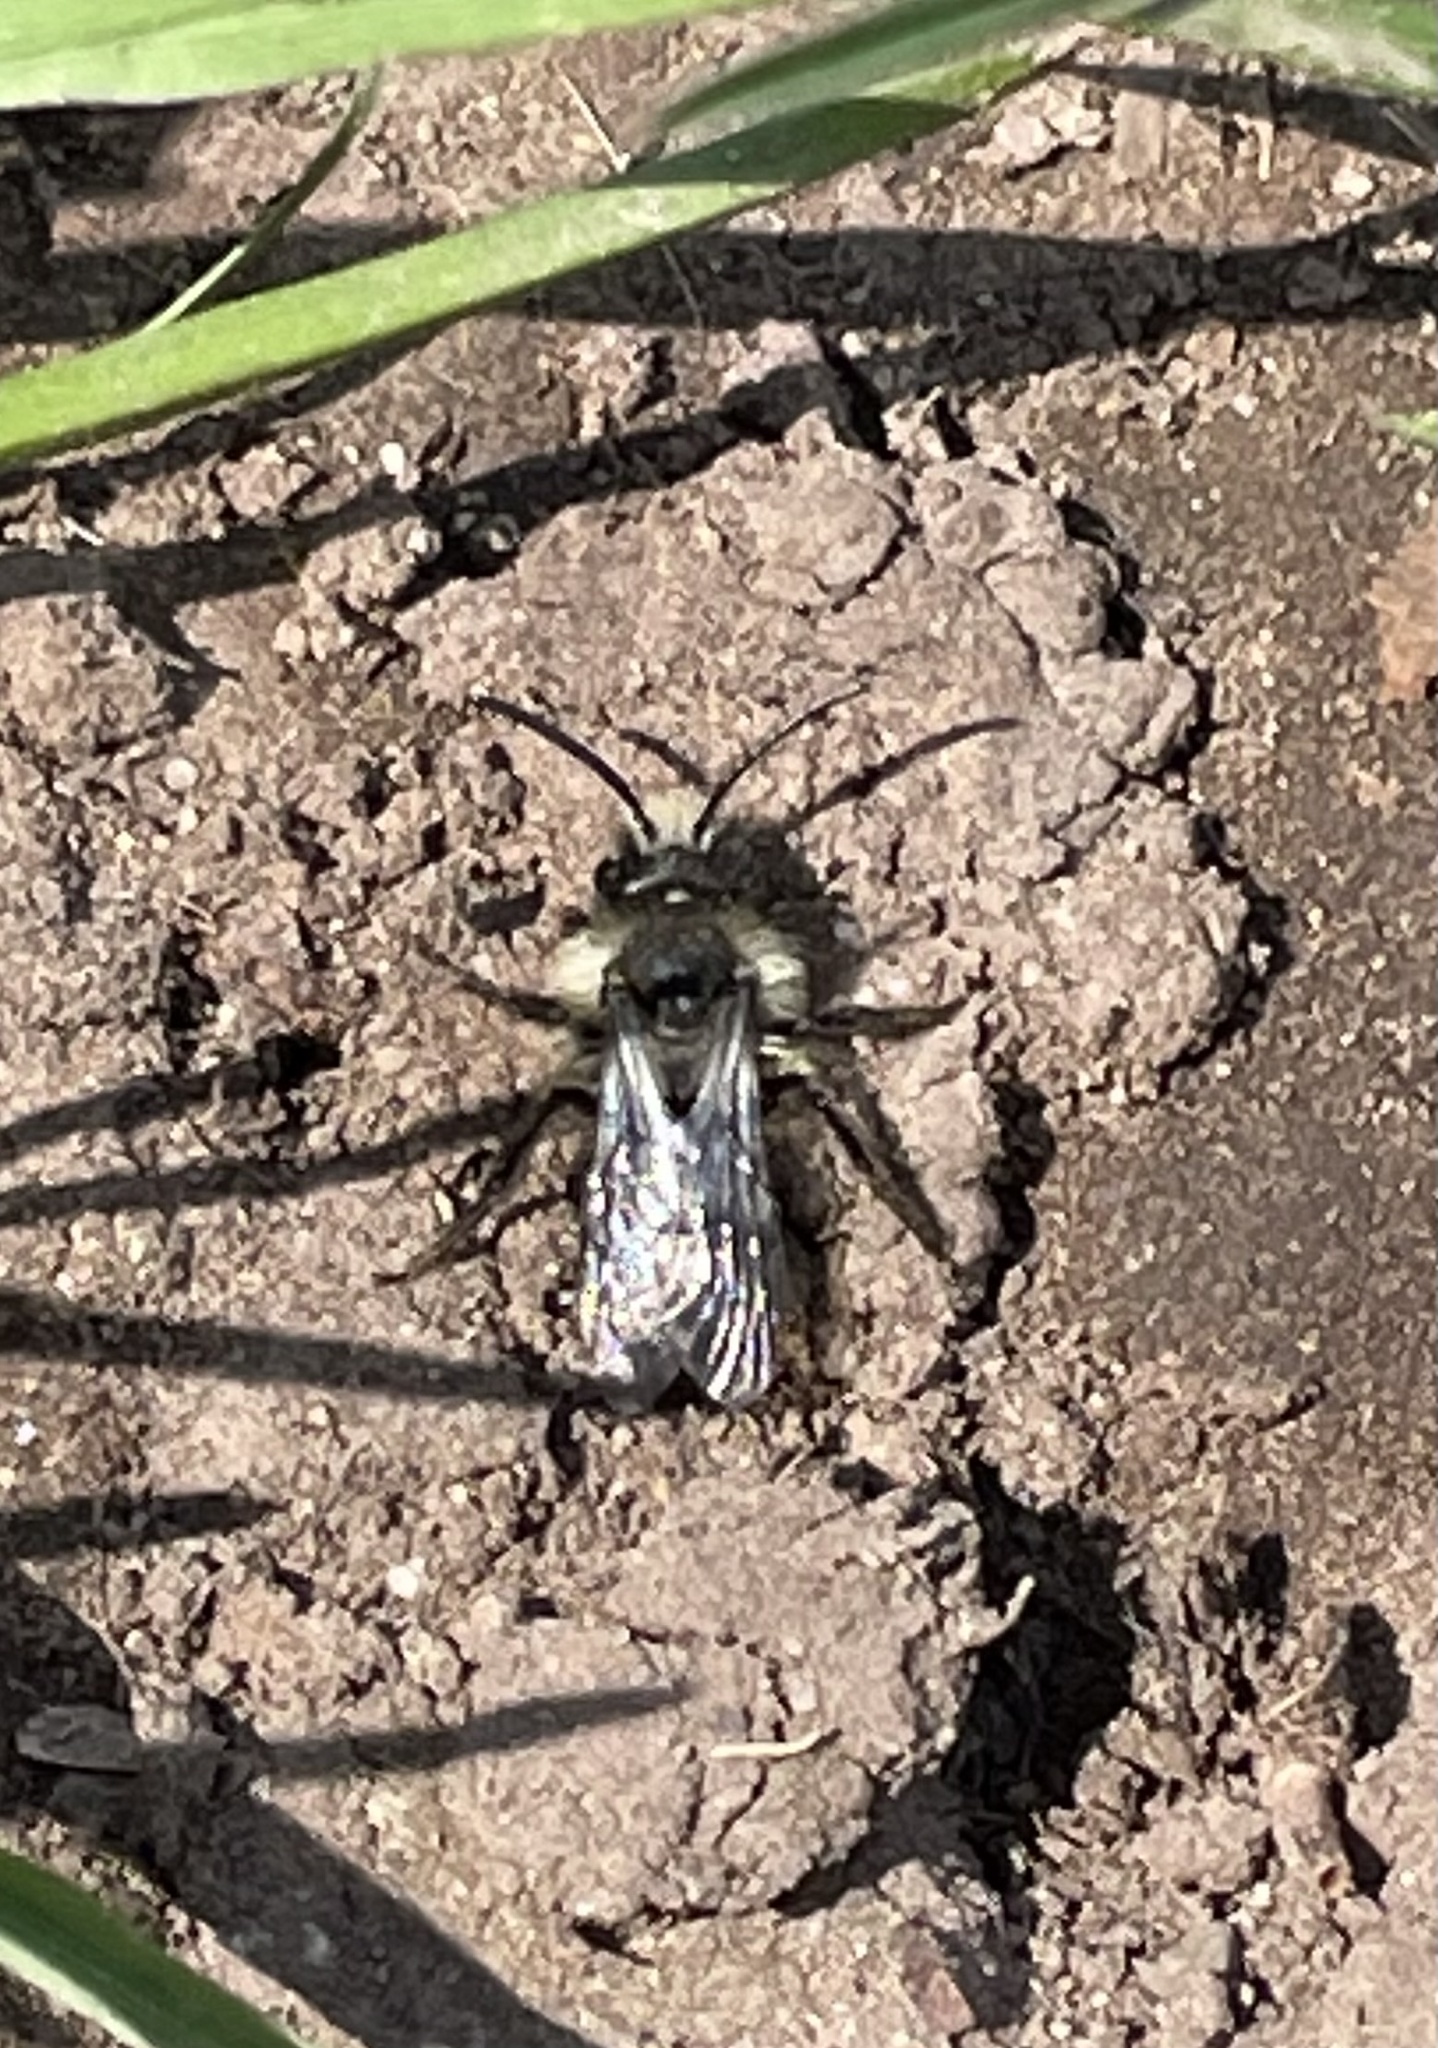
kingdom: Animalia
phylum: Arthropoda
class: Insecta
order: Hymenoptera
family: Andrenidae
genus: Andrena
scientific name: Andrena cineraria
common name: Ashy mining bee
